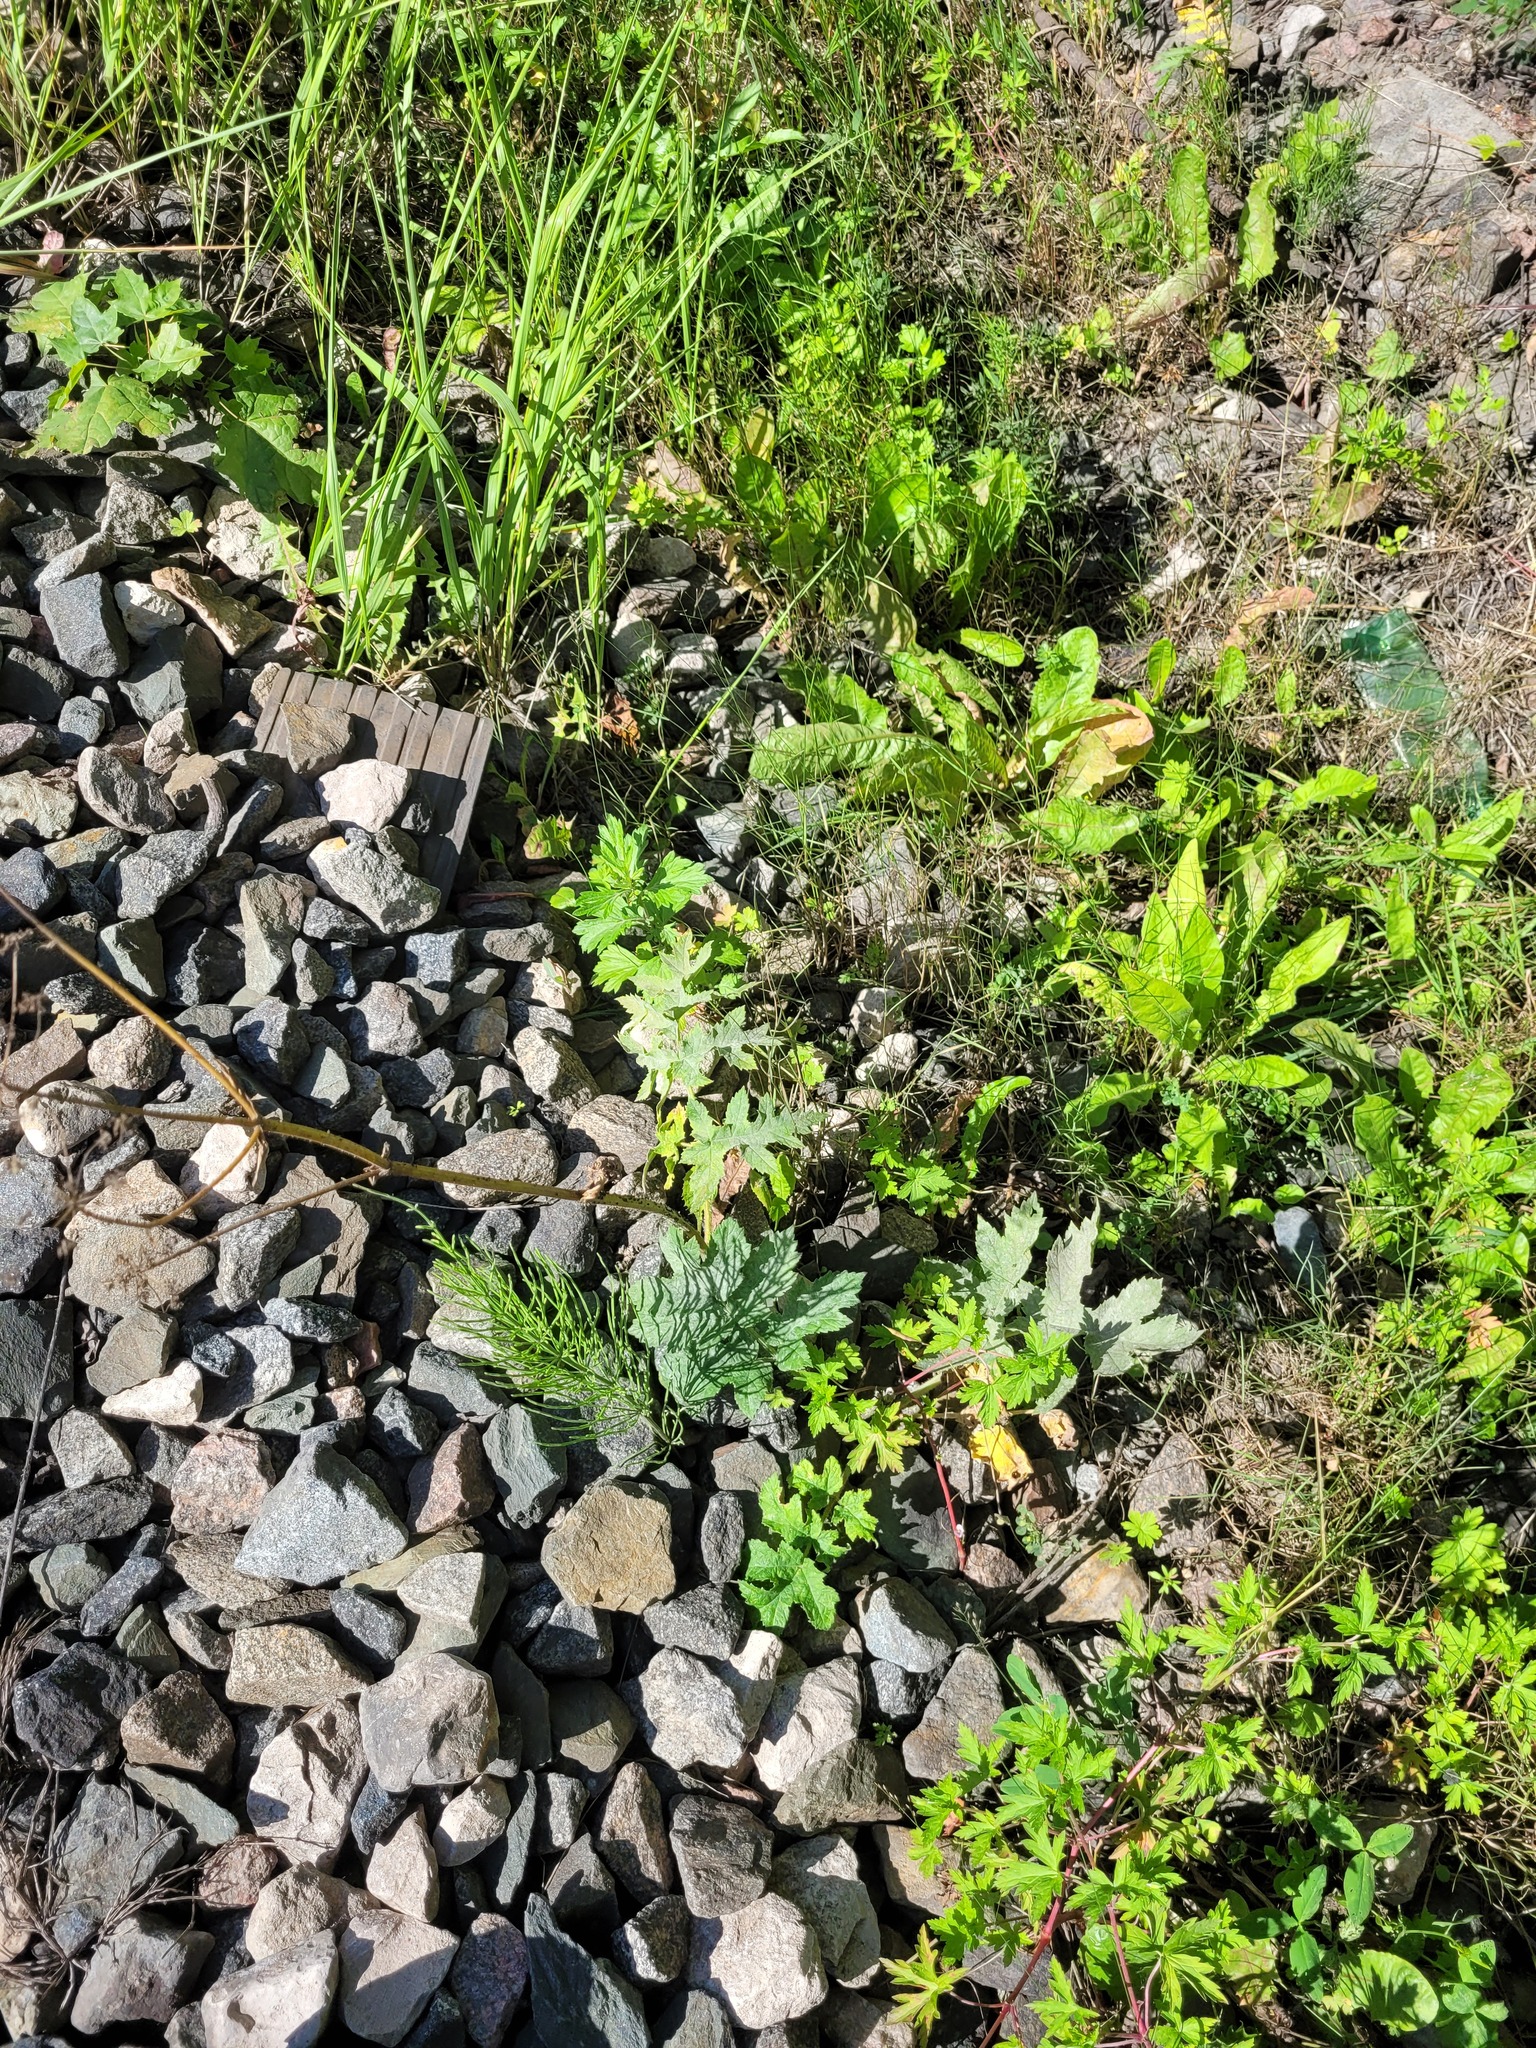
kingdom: Plantae
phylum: Tracheophyta
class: Magnoliopsida
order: Apiales
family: Apiaceae
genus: Heracleum
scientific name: Heracleum sphondylium
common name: Hogweed
